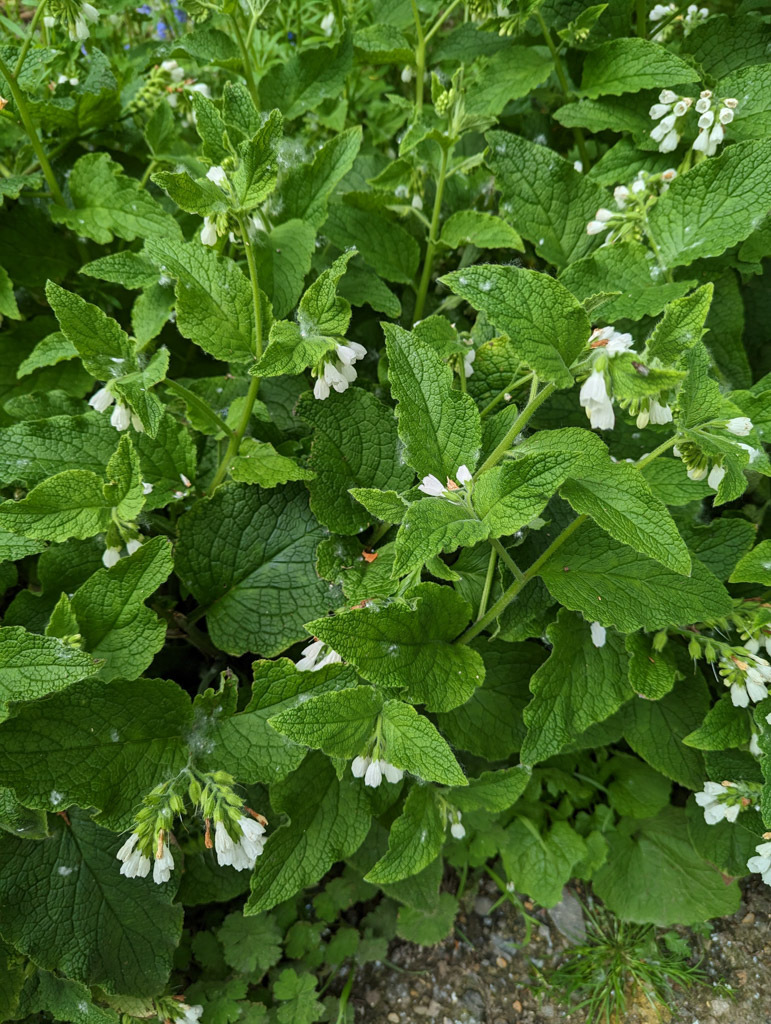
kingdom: Plantae
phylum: Tracheophyta
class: Magnoliopsida
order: Boraginales
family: Boraginaceae
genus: Symphytum
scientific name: Symphytum orientale
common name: White comfrey
